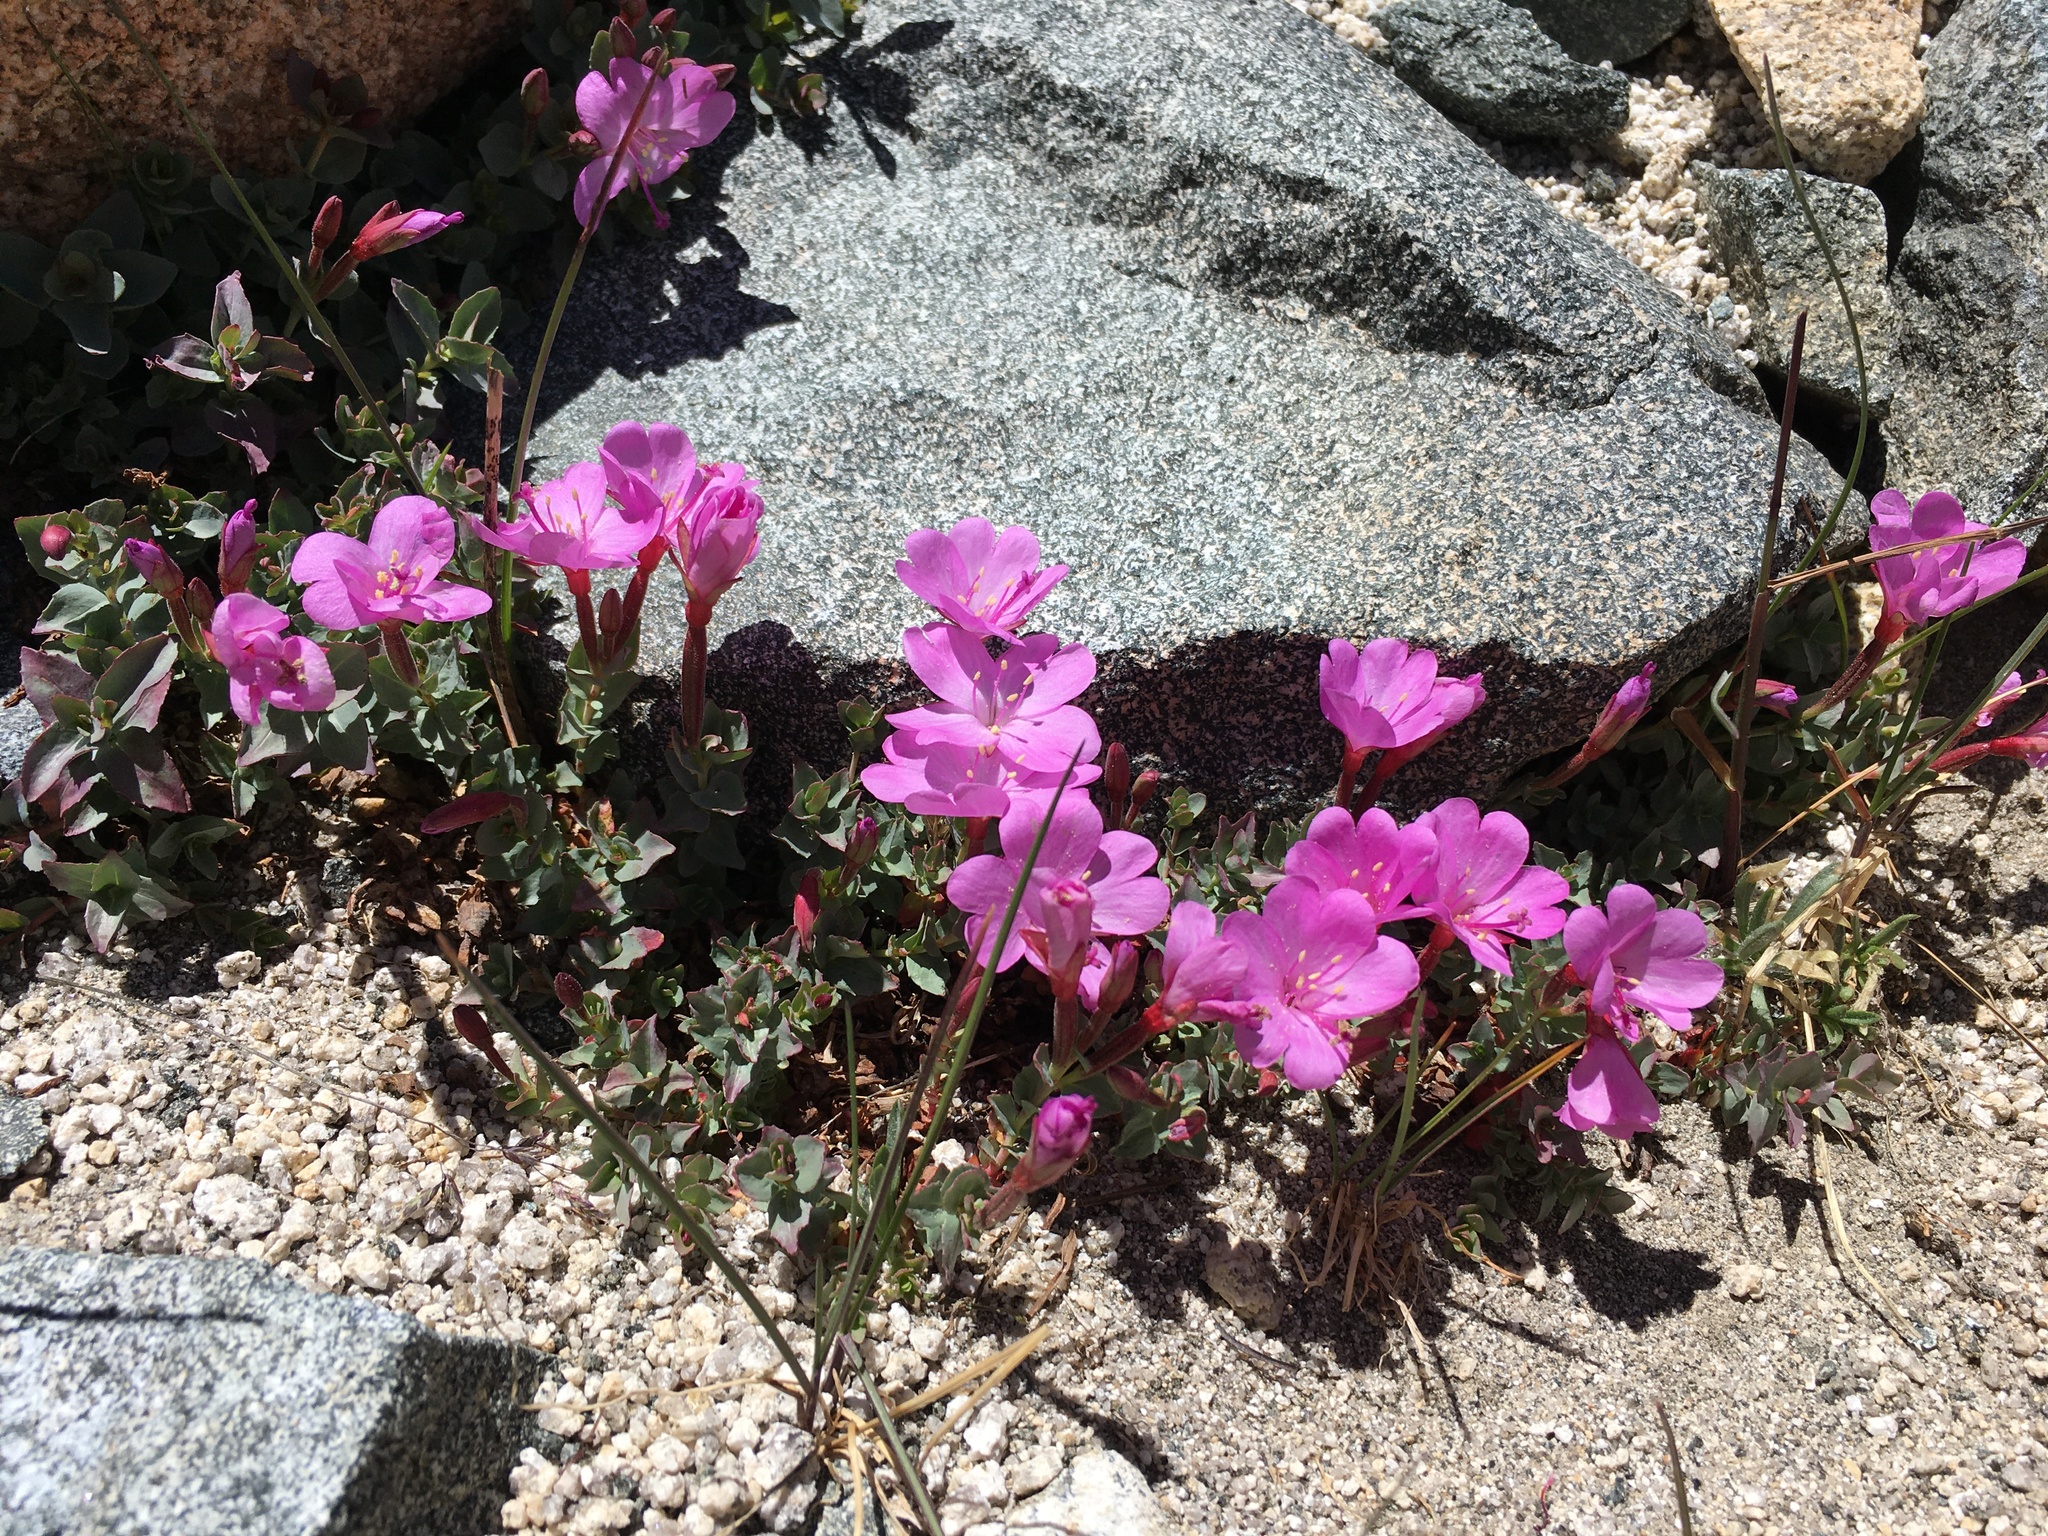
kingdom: Plantae
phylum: Tracheophyta
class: Magnoliopsida
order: Myrtales
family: Onagraceae
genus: Epilobium
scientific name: Epilobium obcordatum
